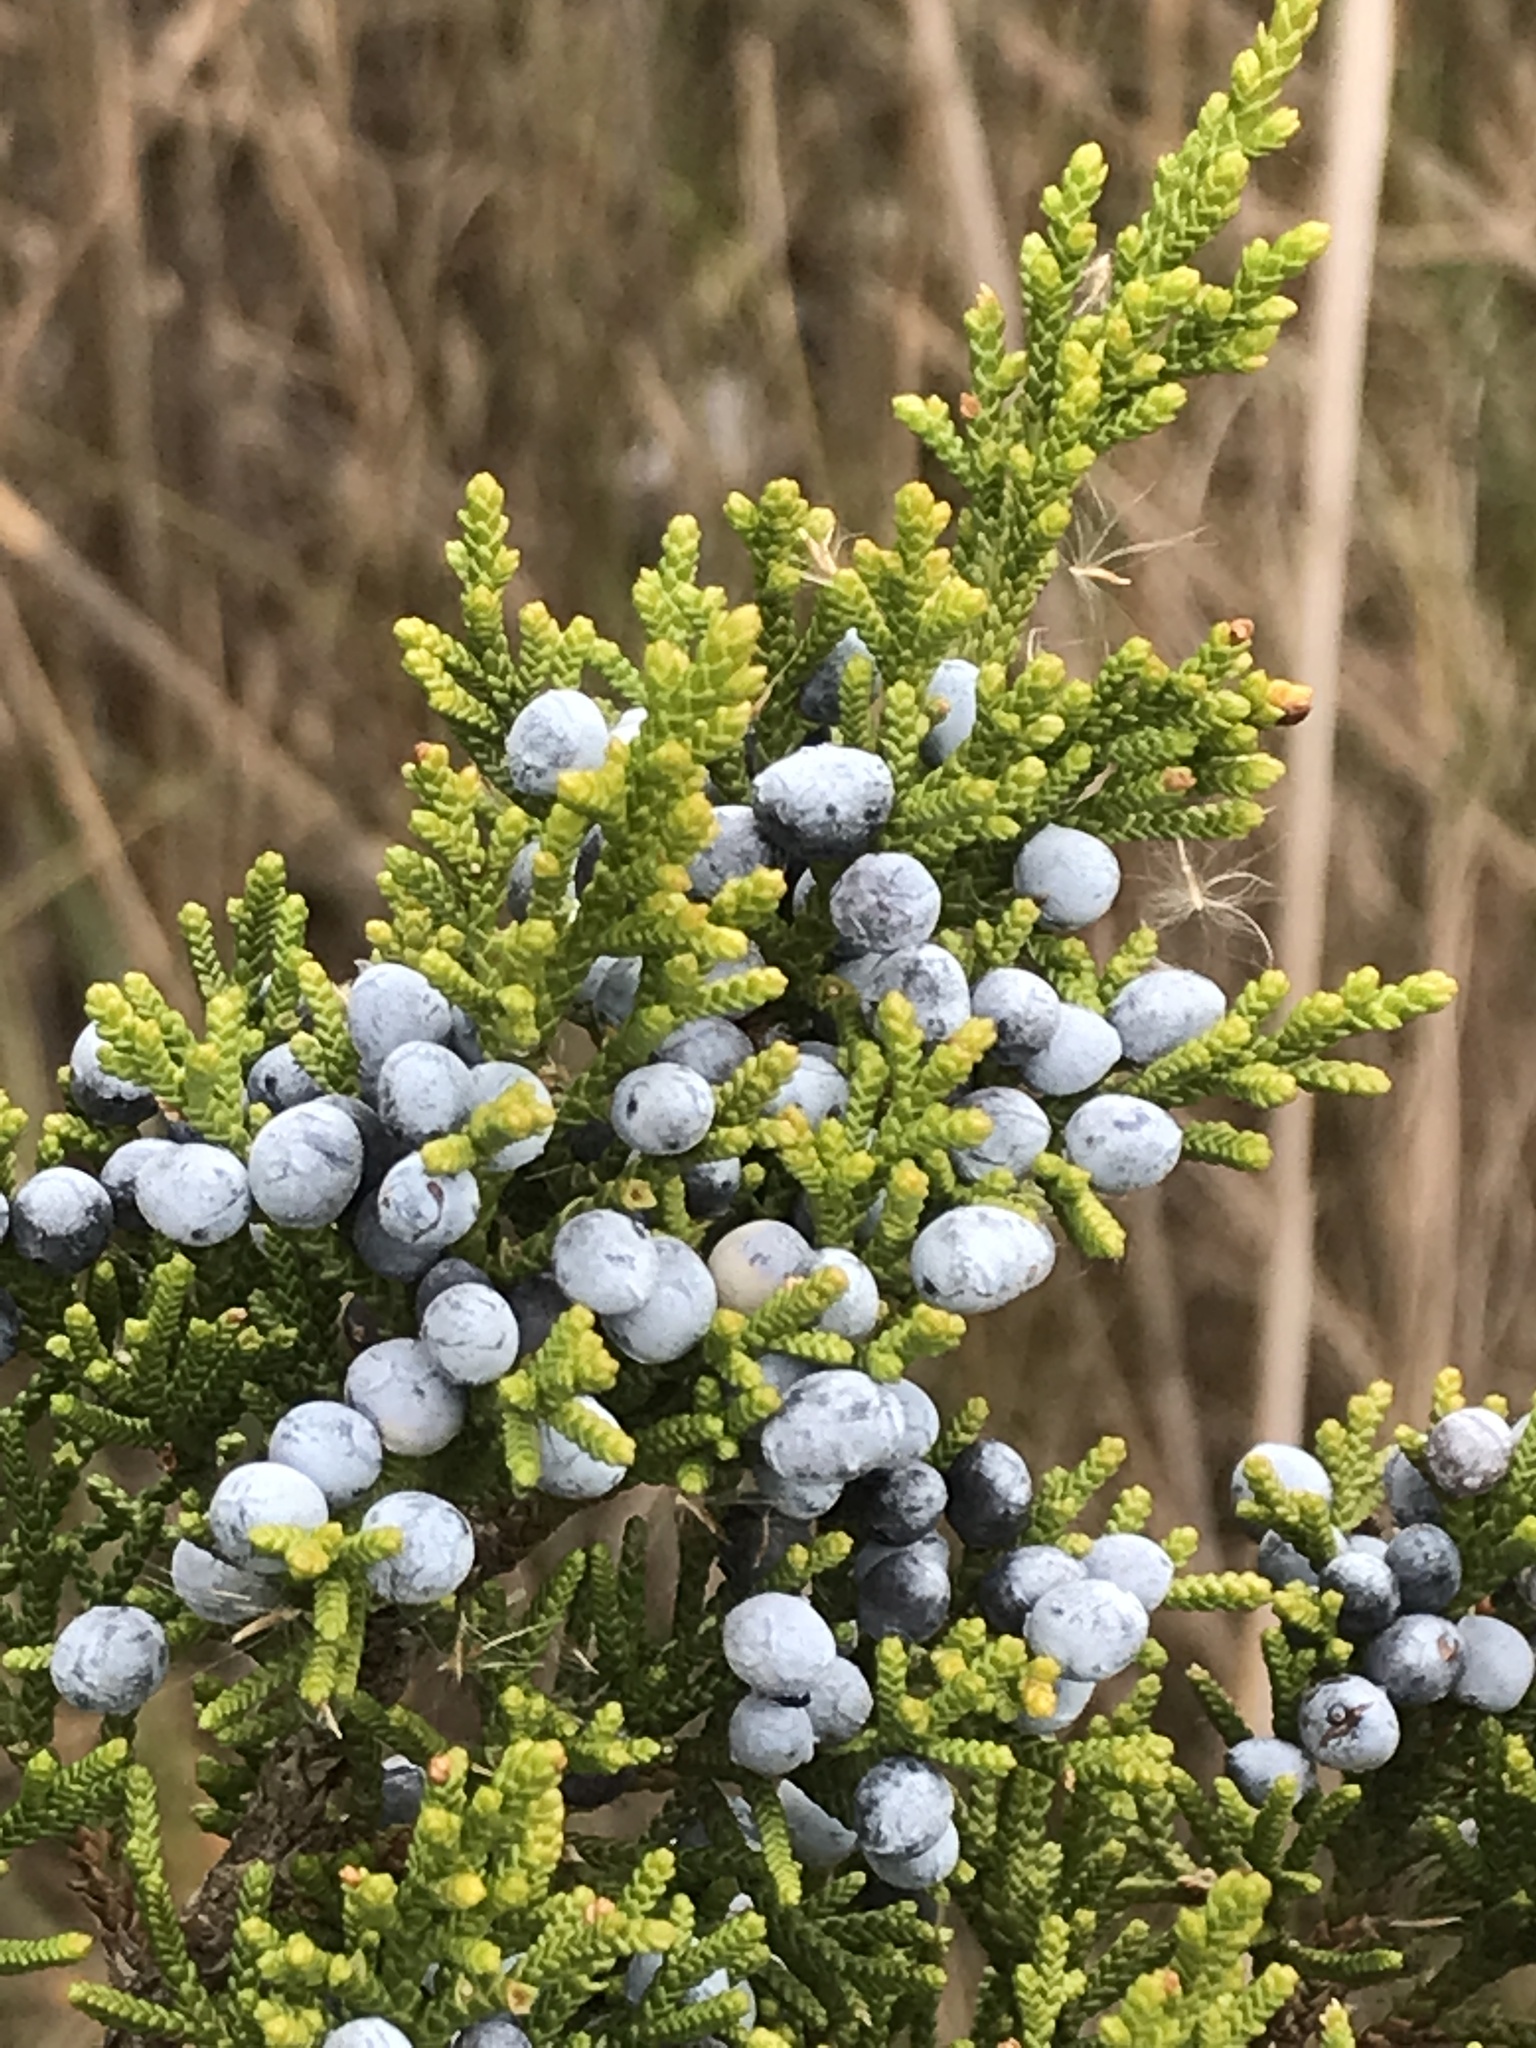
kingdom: Plantae
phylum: Tracheophyta
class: Pinopsida
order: Pinales
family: Cupressaceae
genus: Juniperus
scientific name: Juniperus virginiana
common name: Red juniper
